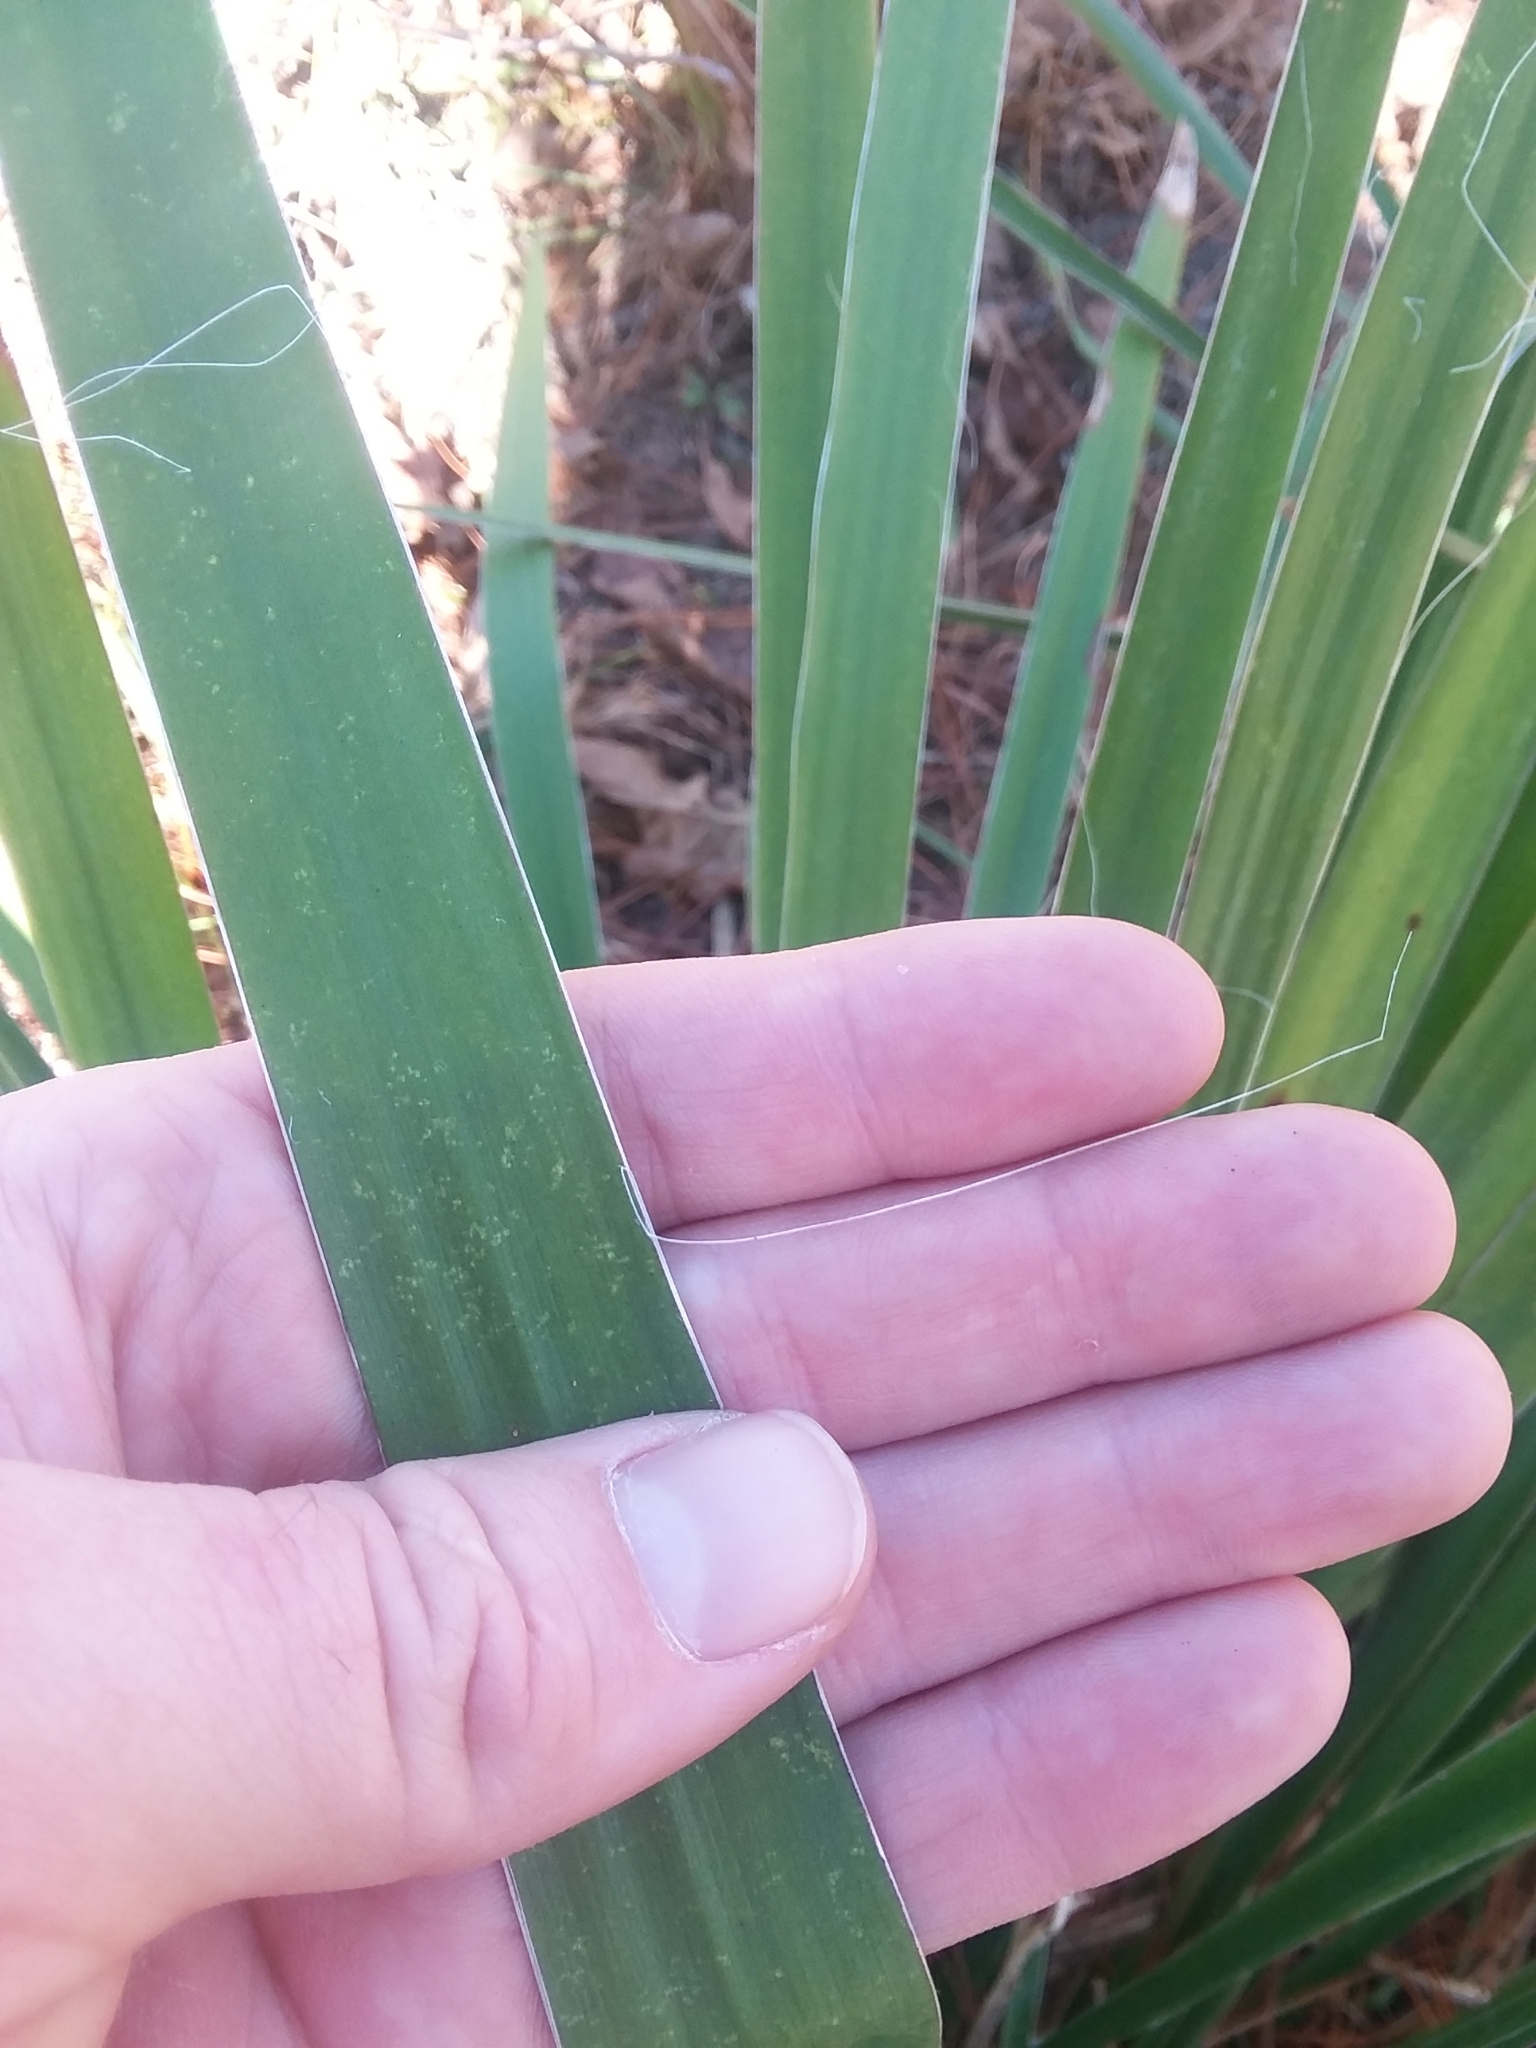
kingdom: Plantae
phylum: Tracheophyta
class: Liliopsida
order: Asparagales
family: Asparagaceae
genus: Yucca
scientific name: Yucca flaccida
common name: Adam's-needle
